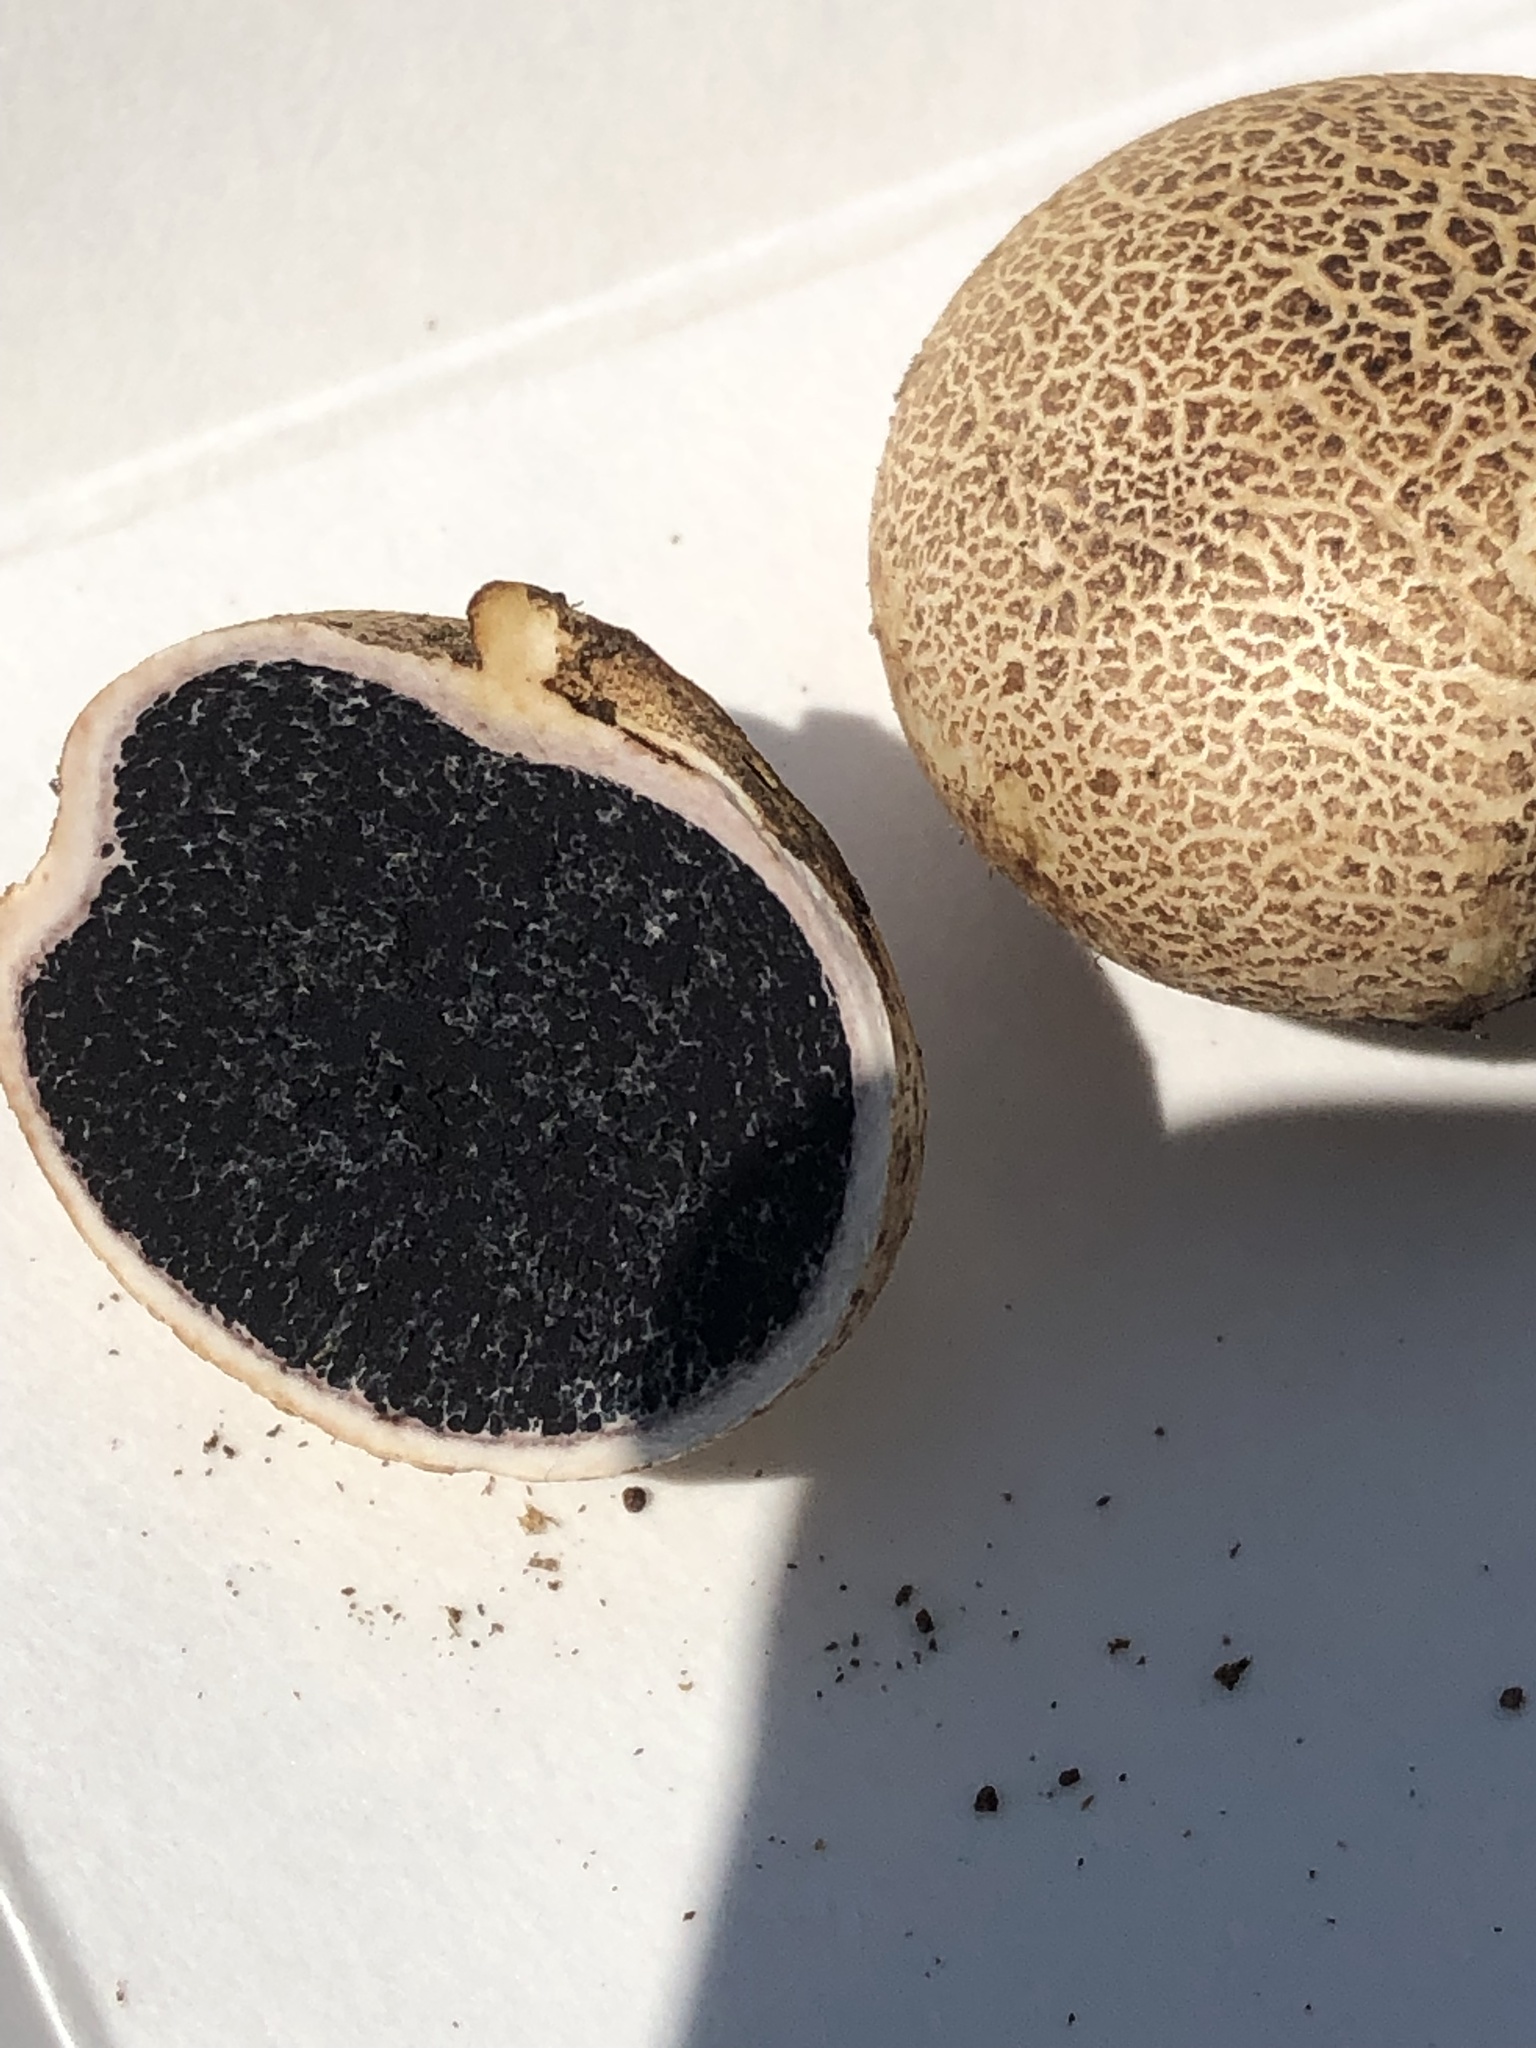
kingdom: Fungi
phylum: Basidiomycota
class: Agaricomycetes
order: Boletales
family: Sclerodermataceae
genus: Scleroderma
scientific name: Scleroderma citrinum
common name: Common earthball
